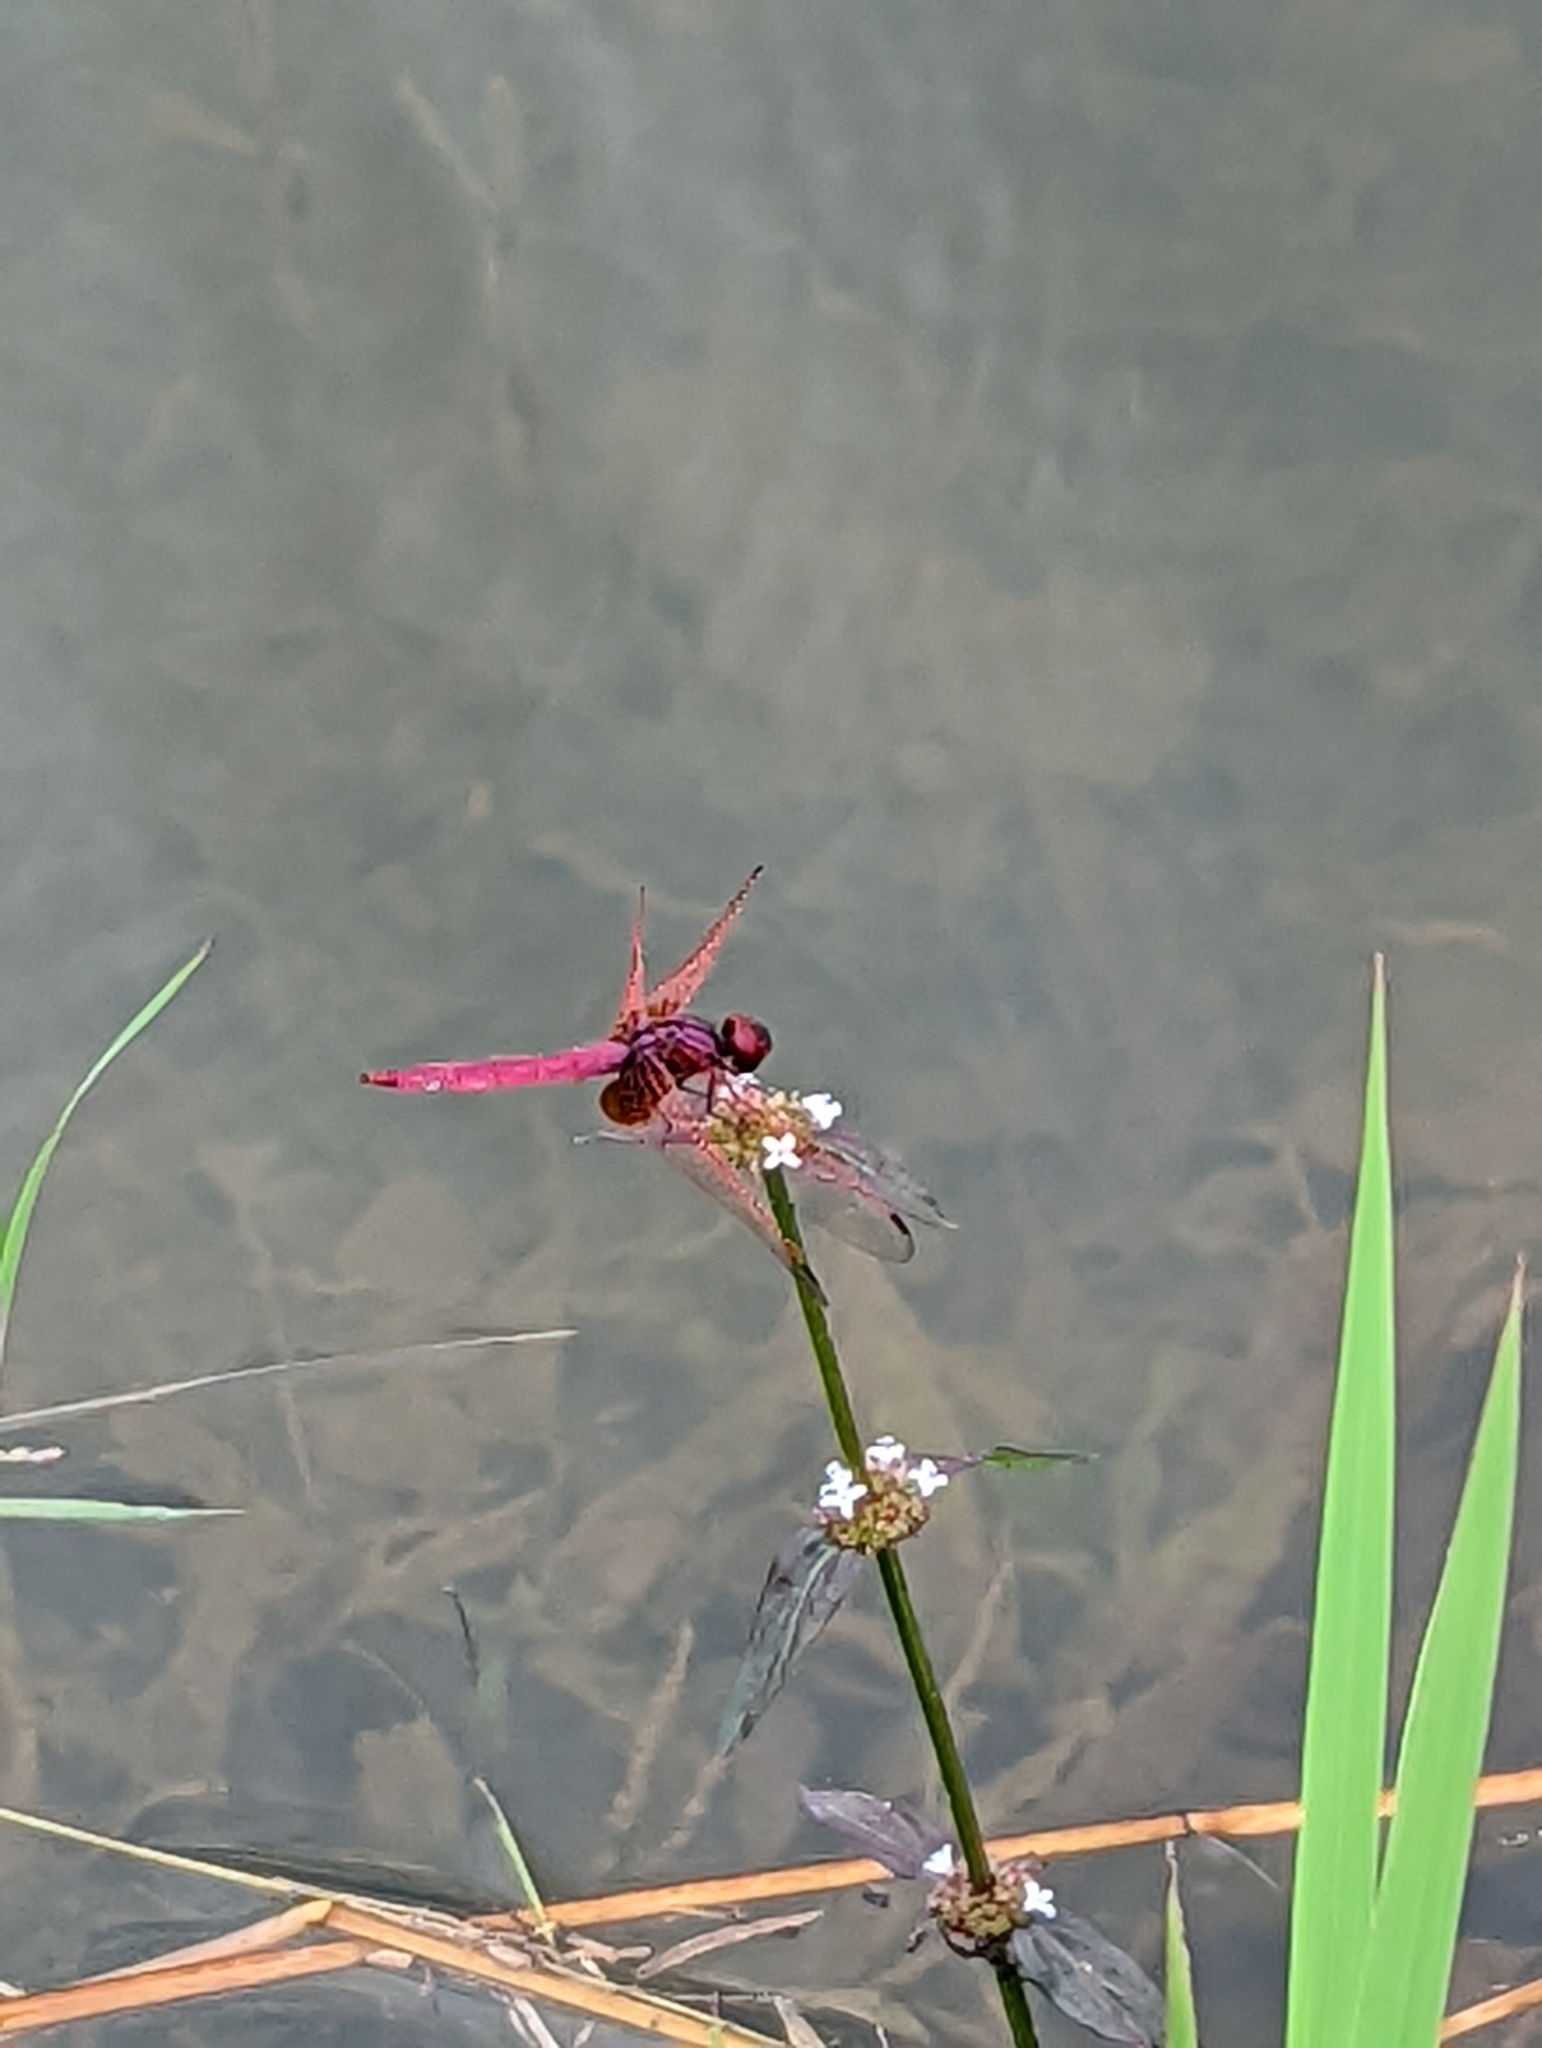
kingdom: Animalia
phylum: Arthropoda
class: Insecta
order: Odonata
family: Libellulidae
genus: Trithemis
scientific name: Trithemis aurora
